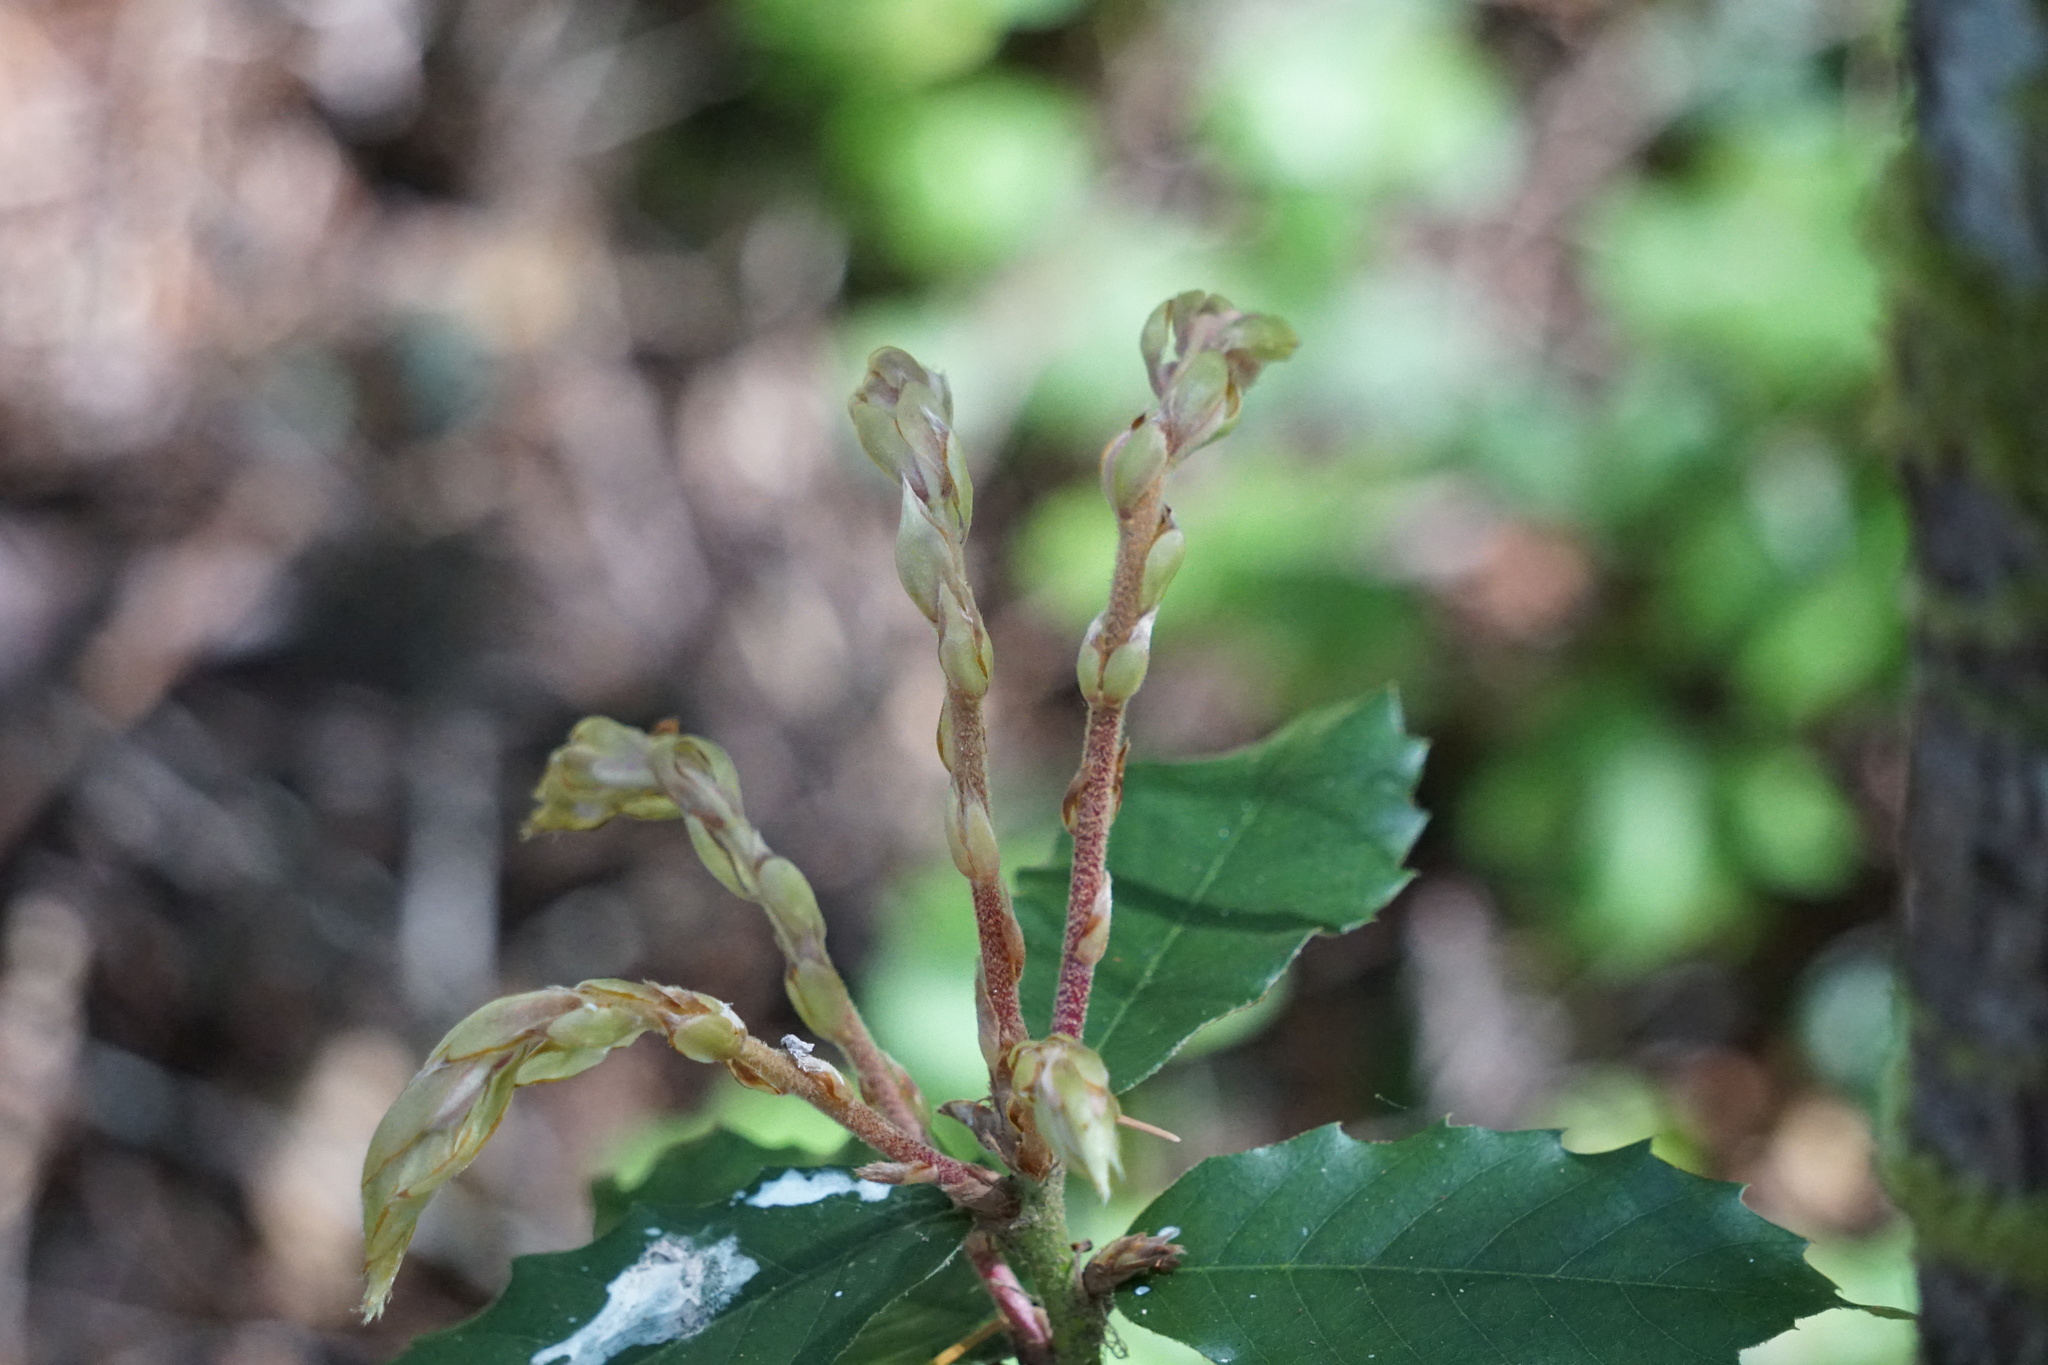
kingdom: Plantae
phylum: Tracheophyta
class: Magnoliopsida
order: Fagales
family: Fagaceae
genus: Notholithocarpus
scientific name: Notholithocarpus densiflorus
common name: Tan bark oak
